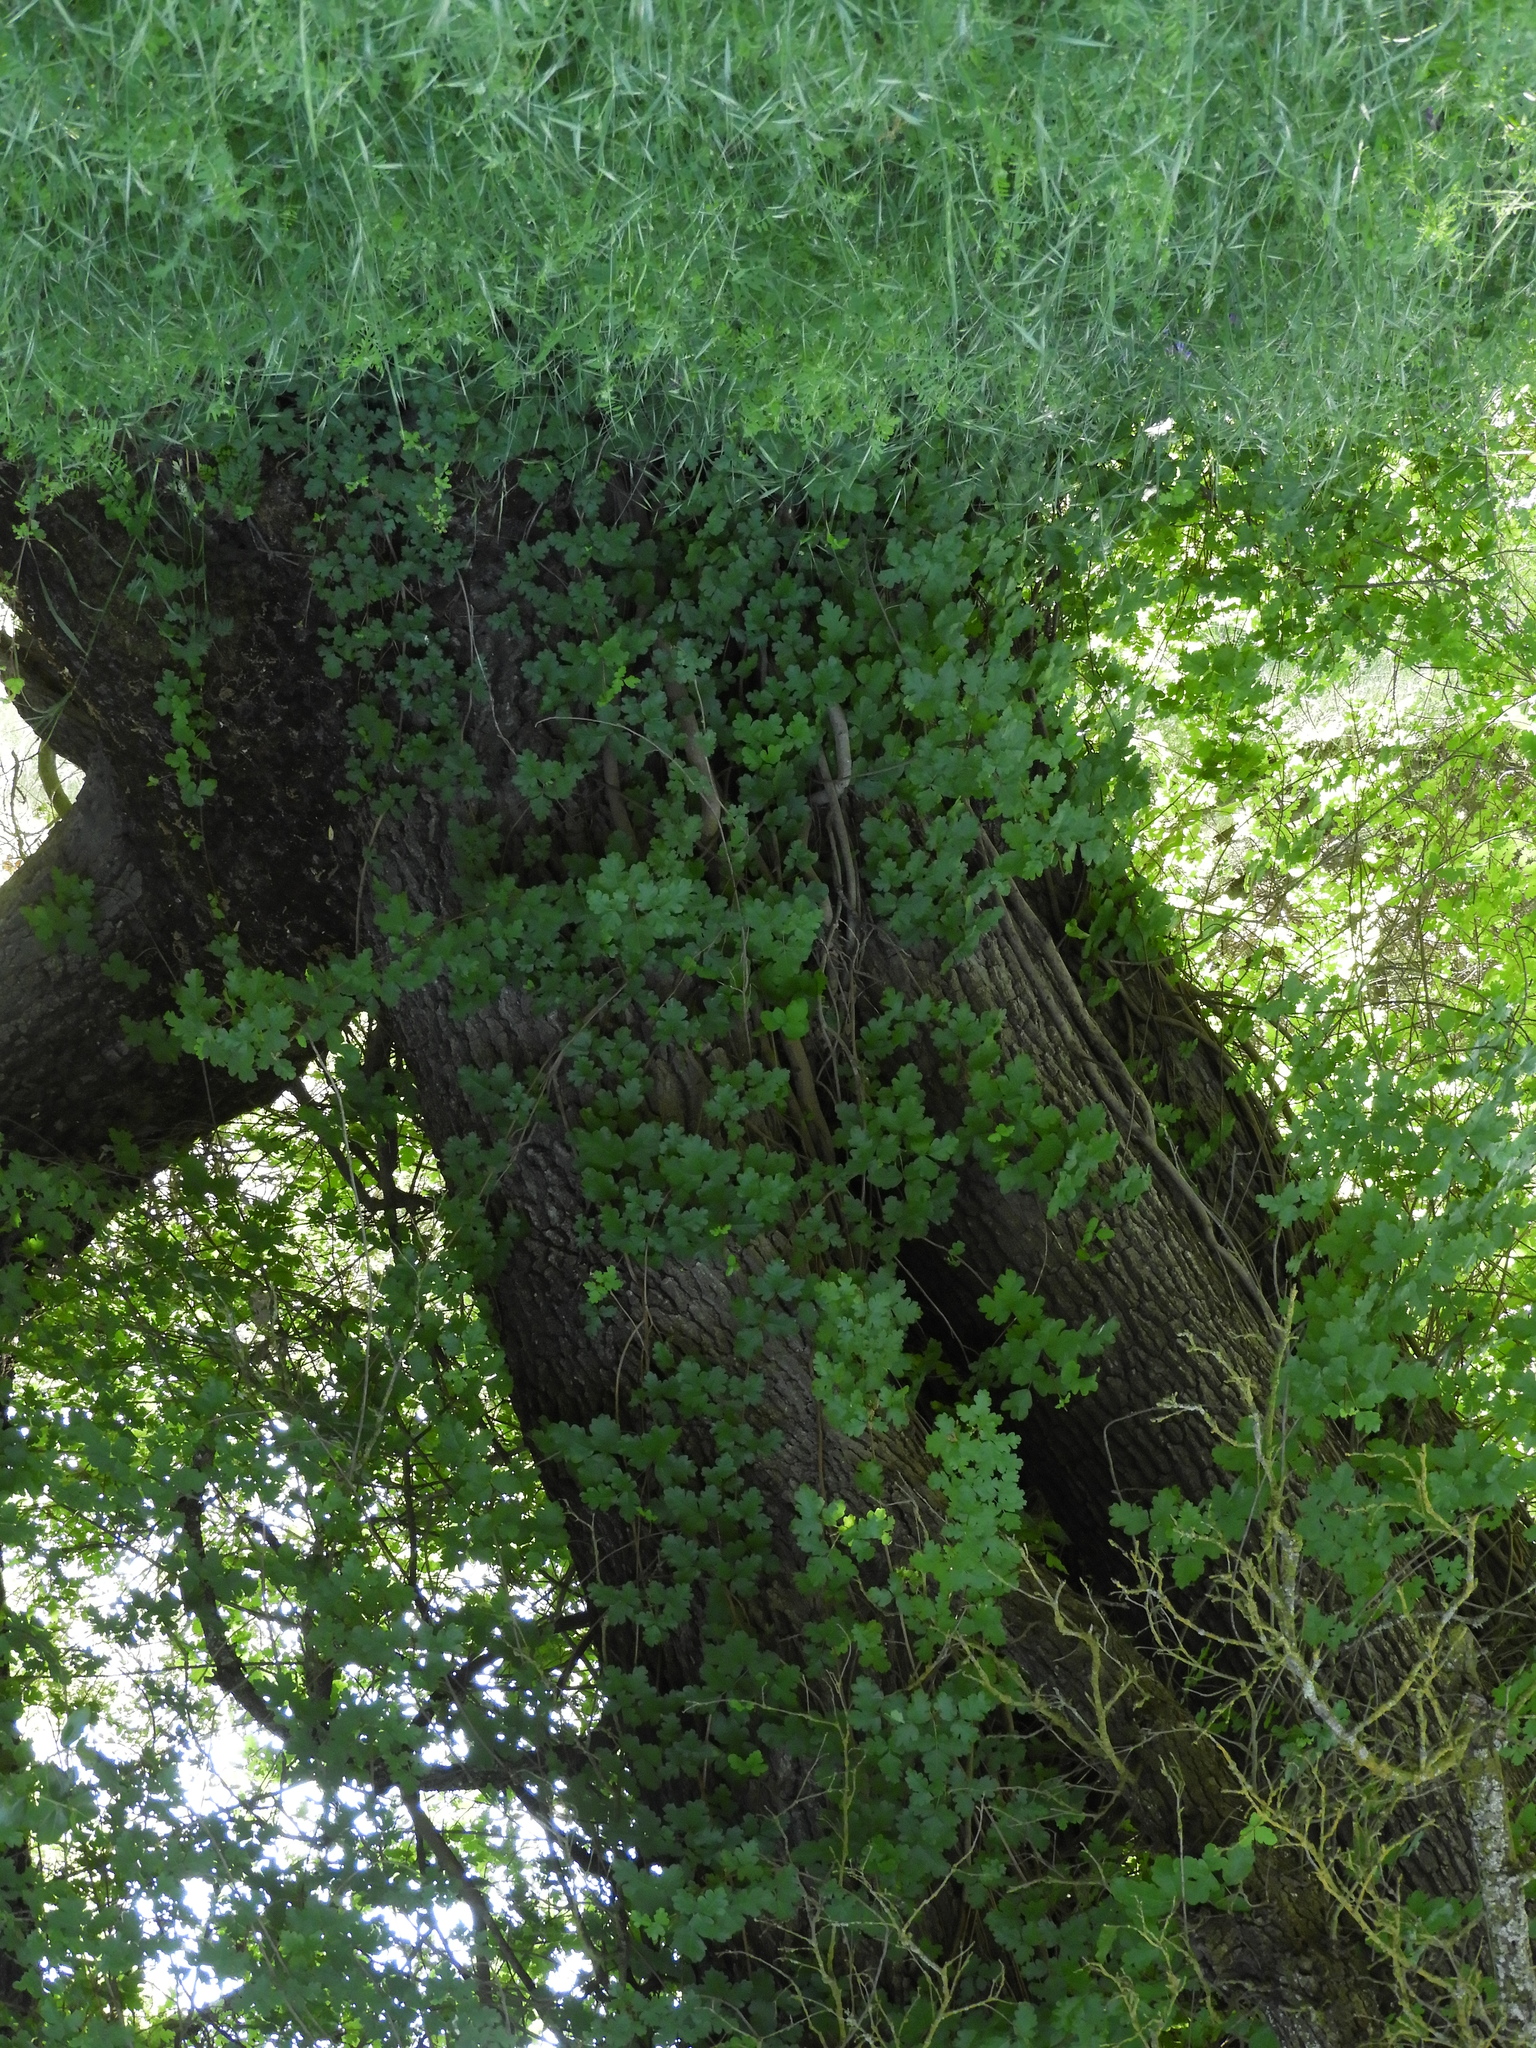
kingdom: Plantae
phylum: Tracheophyta
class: Magnoliopsida
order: Sapindales
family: Anacardiaceae
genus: Toxicodendron
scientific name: Toxicodendron diversilobum
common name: Pacific poison-oak
